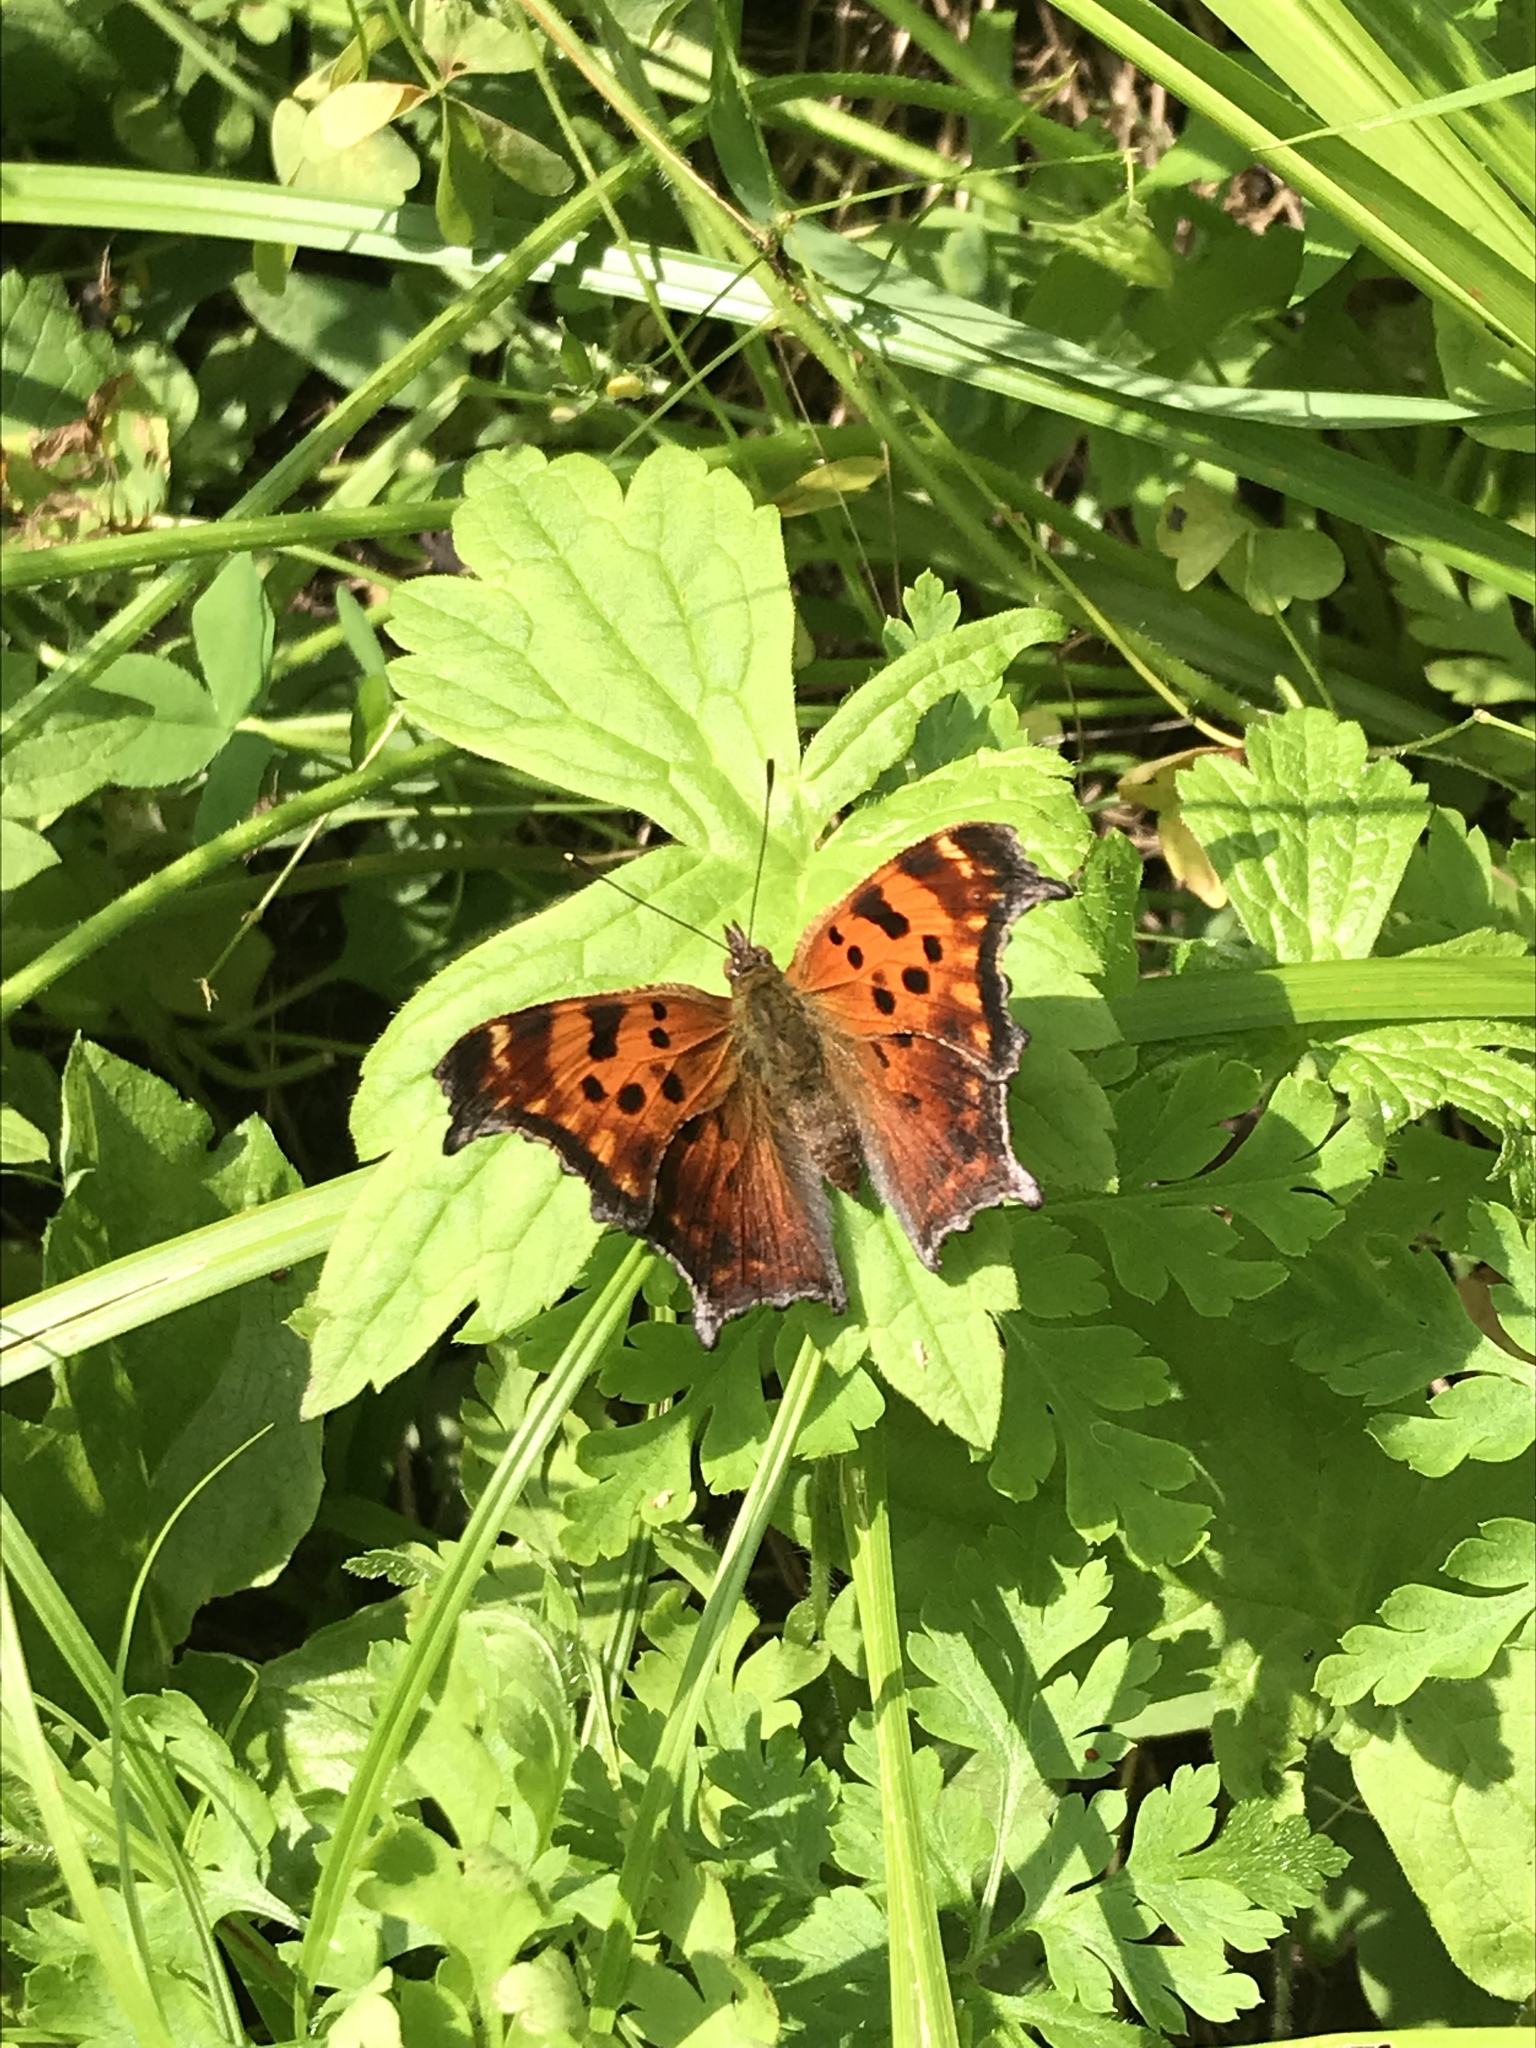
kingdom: Animalia
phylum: Arthropoda
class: Insecta
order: Lepidoptera
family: Nymphalidae
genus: Polygonia
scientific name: Polygonia comma
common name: Eastern comma
